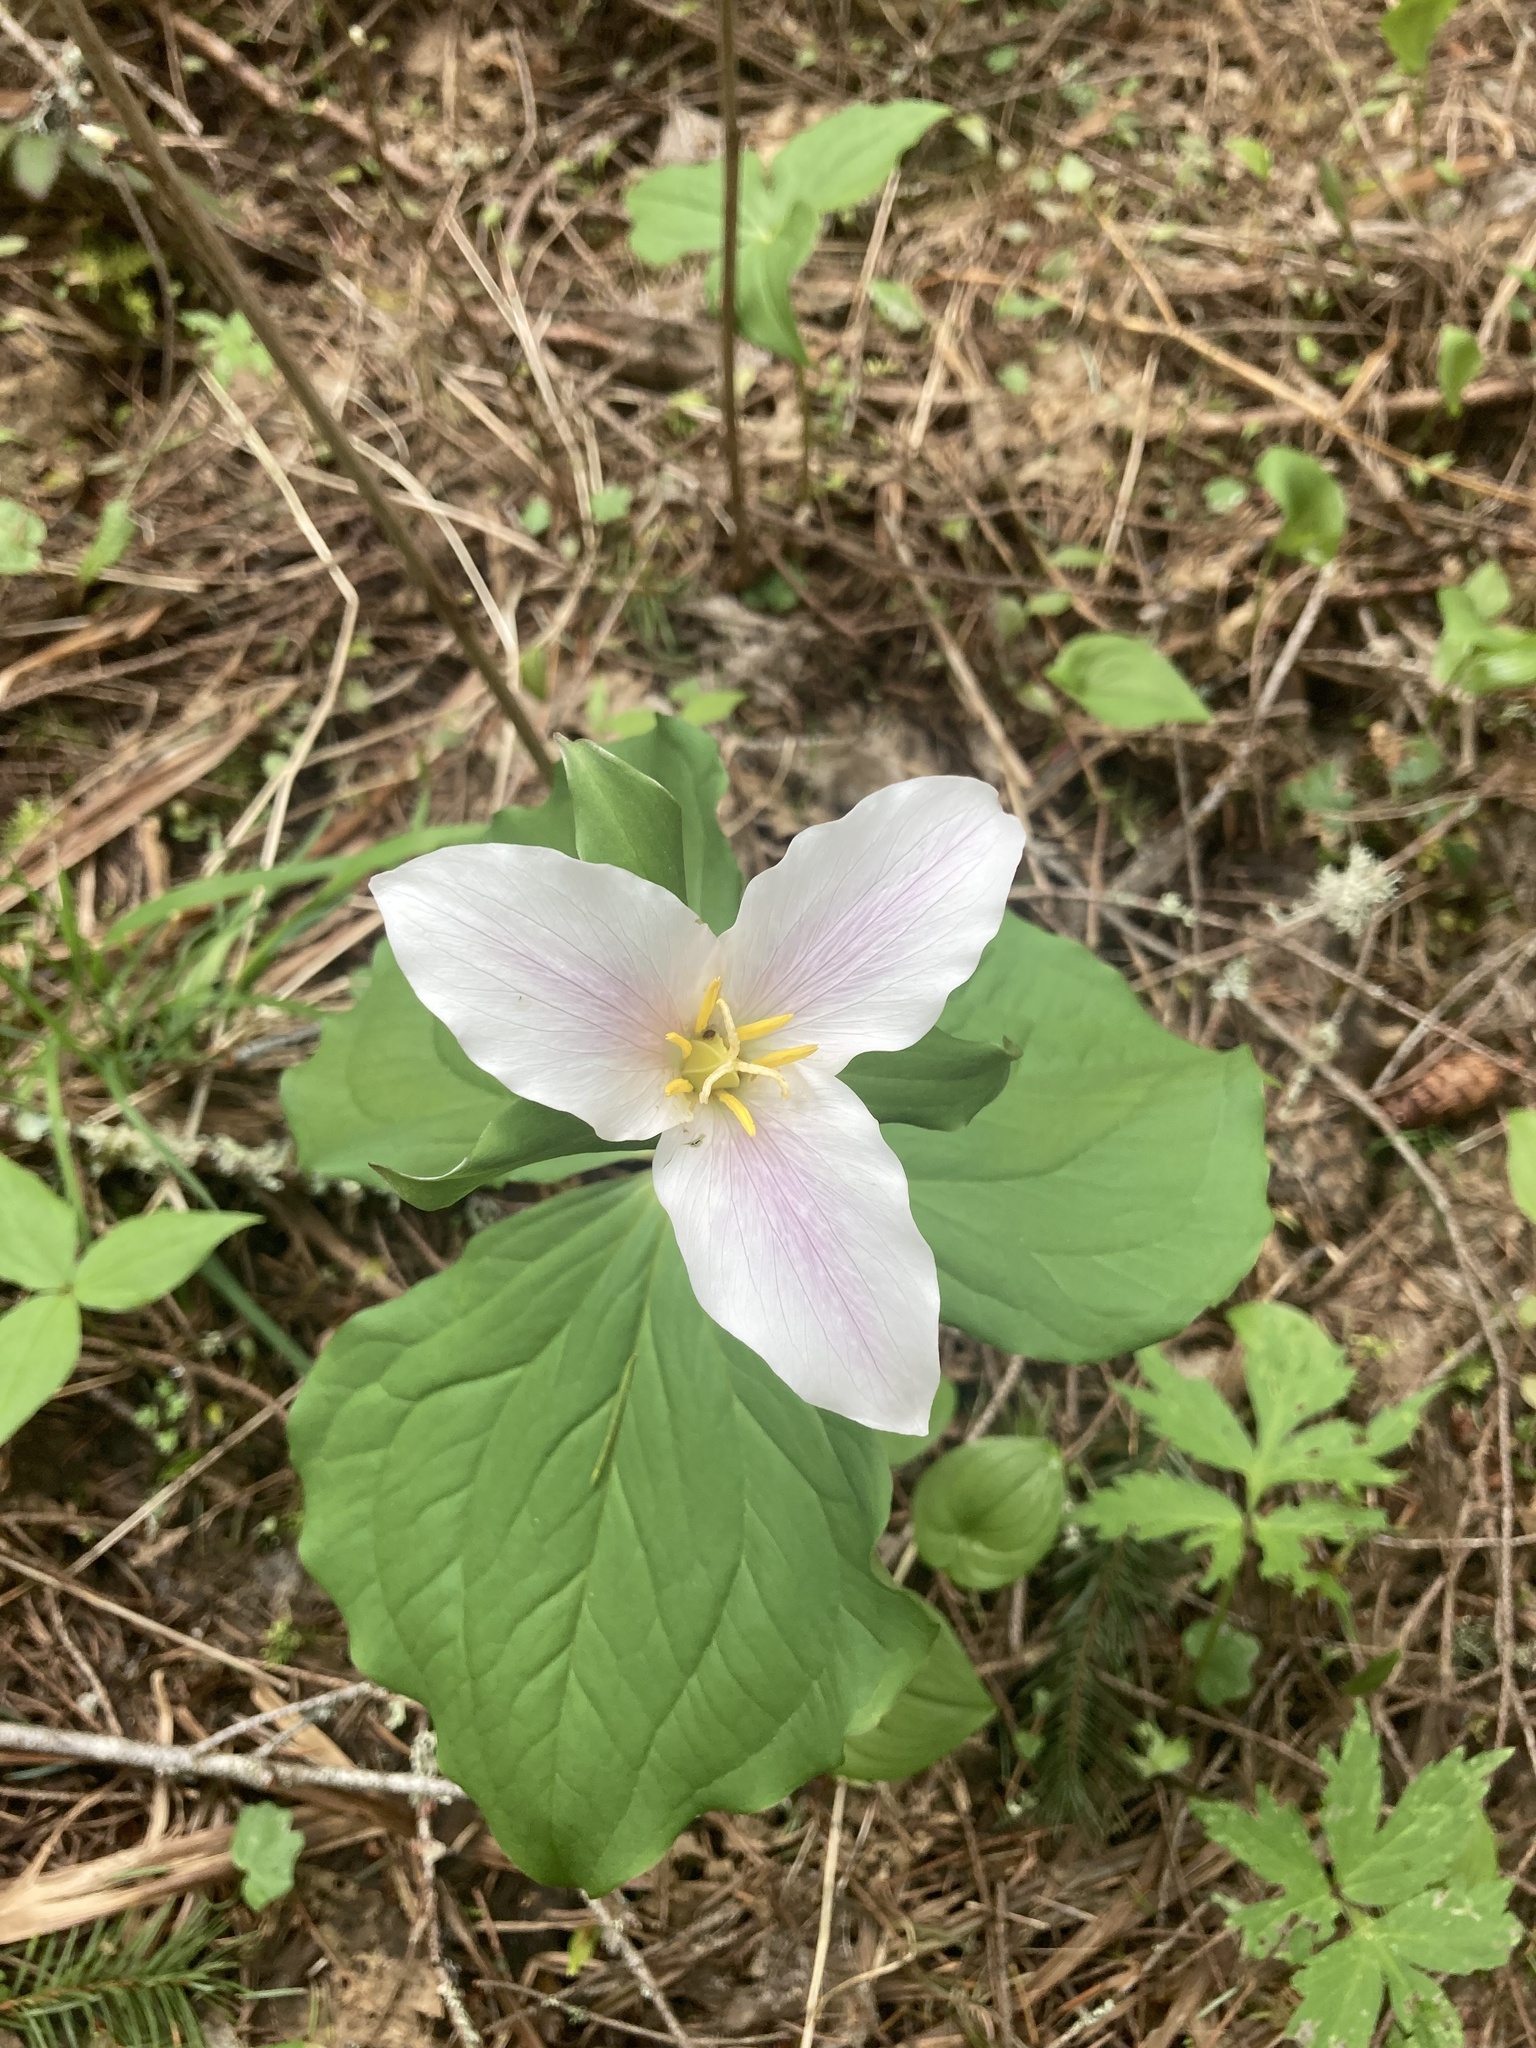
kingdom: Plantae
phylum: Tracheophyta
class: Liliopsida
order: Liliales
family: Melanthiaceae
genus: Trillium
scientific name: Trillium ovatum
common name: Pacific trillium
